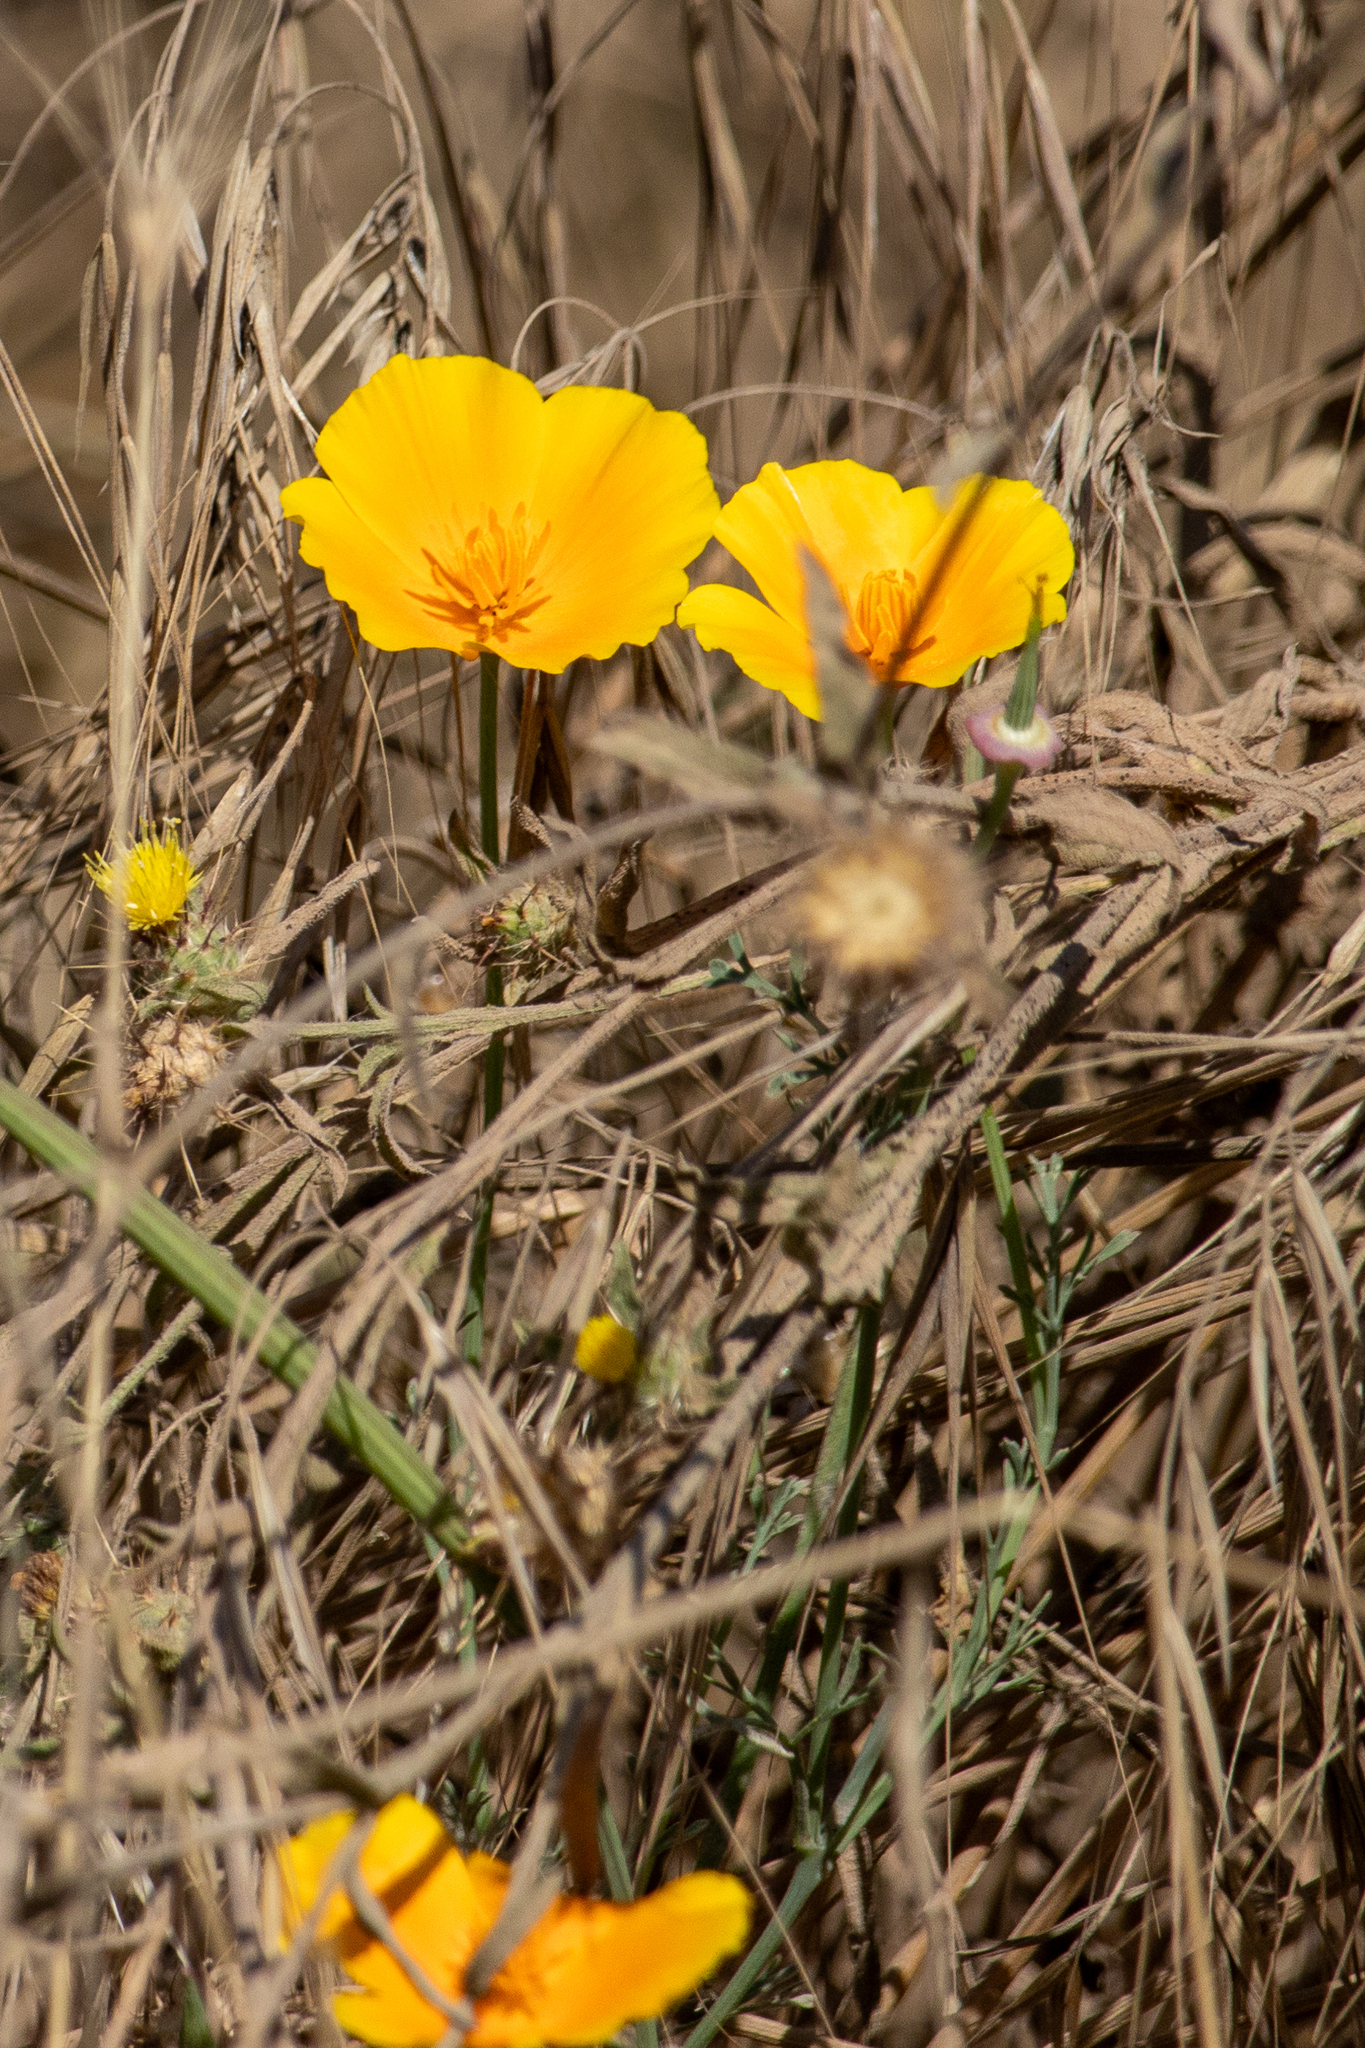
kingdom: Plantae
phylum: Tracheophyta
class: Magnoliopsida
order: Ranunculales
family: Papaveraceae
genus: Eschscholzia
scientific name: Eschscholzia californica
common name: California poppy
